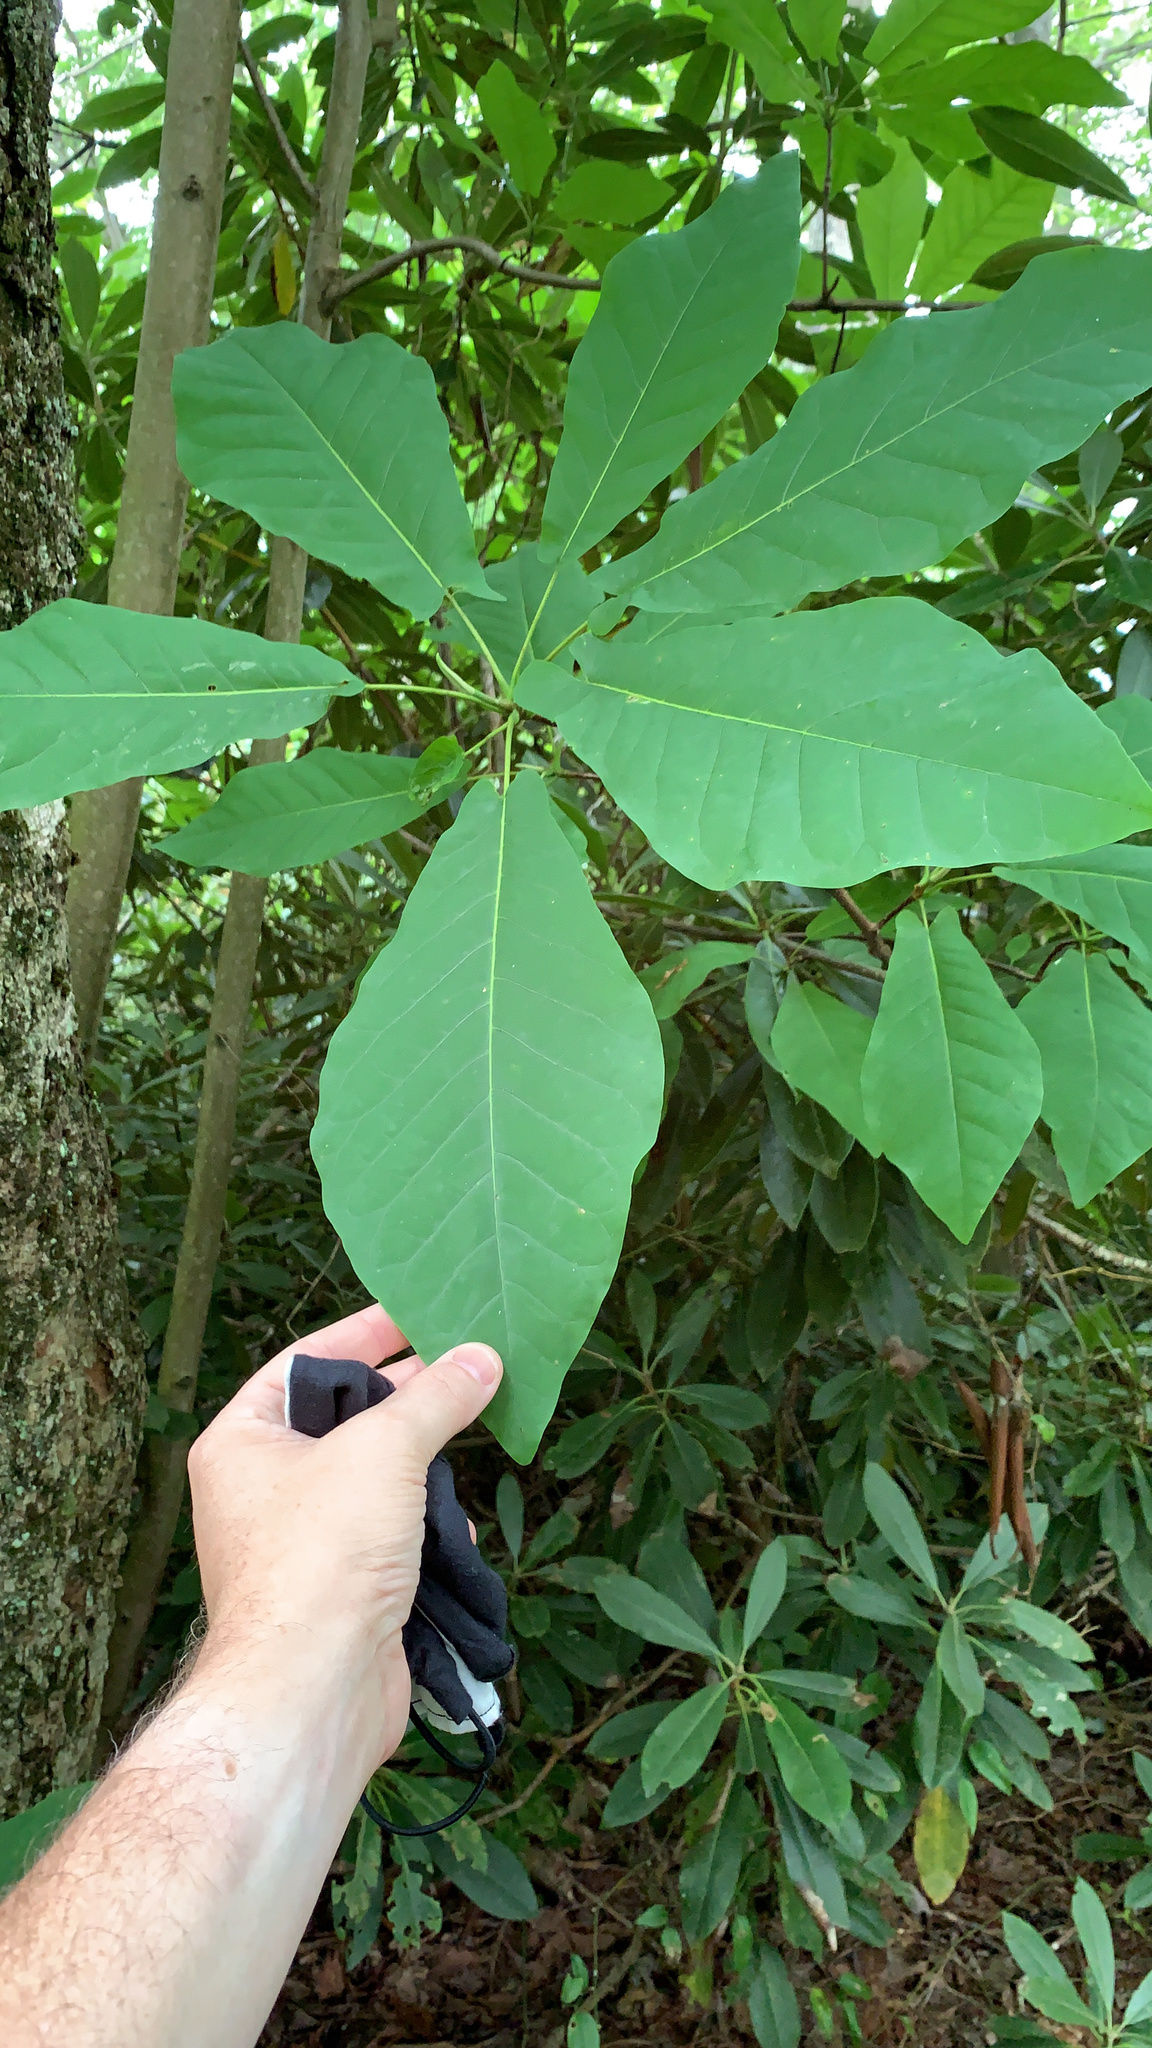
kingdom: Plantae
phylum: Tracheophyta
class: Magnoliopsida
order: Magnoliales
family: Magnoliaceae
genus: Magnolia
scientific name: Magnolia fraseri
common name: Fraser's magnolia
